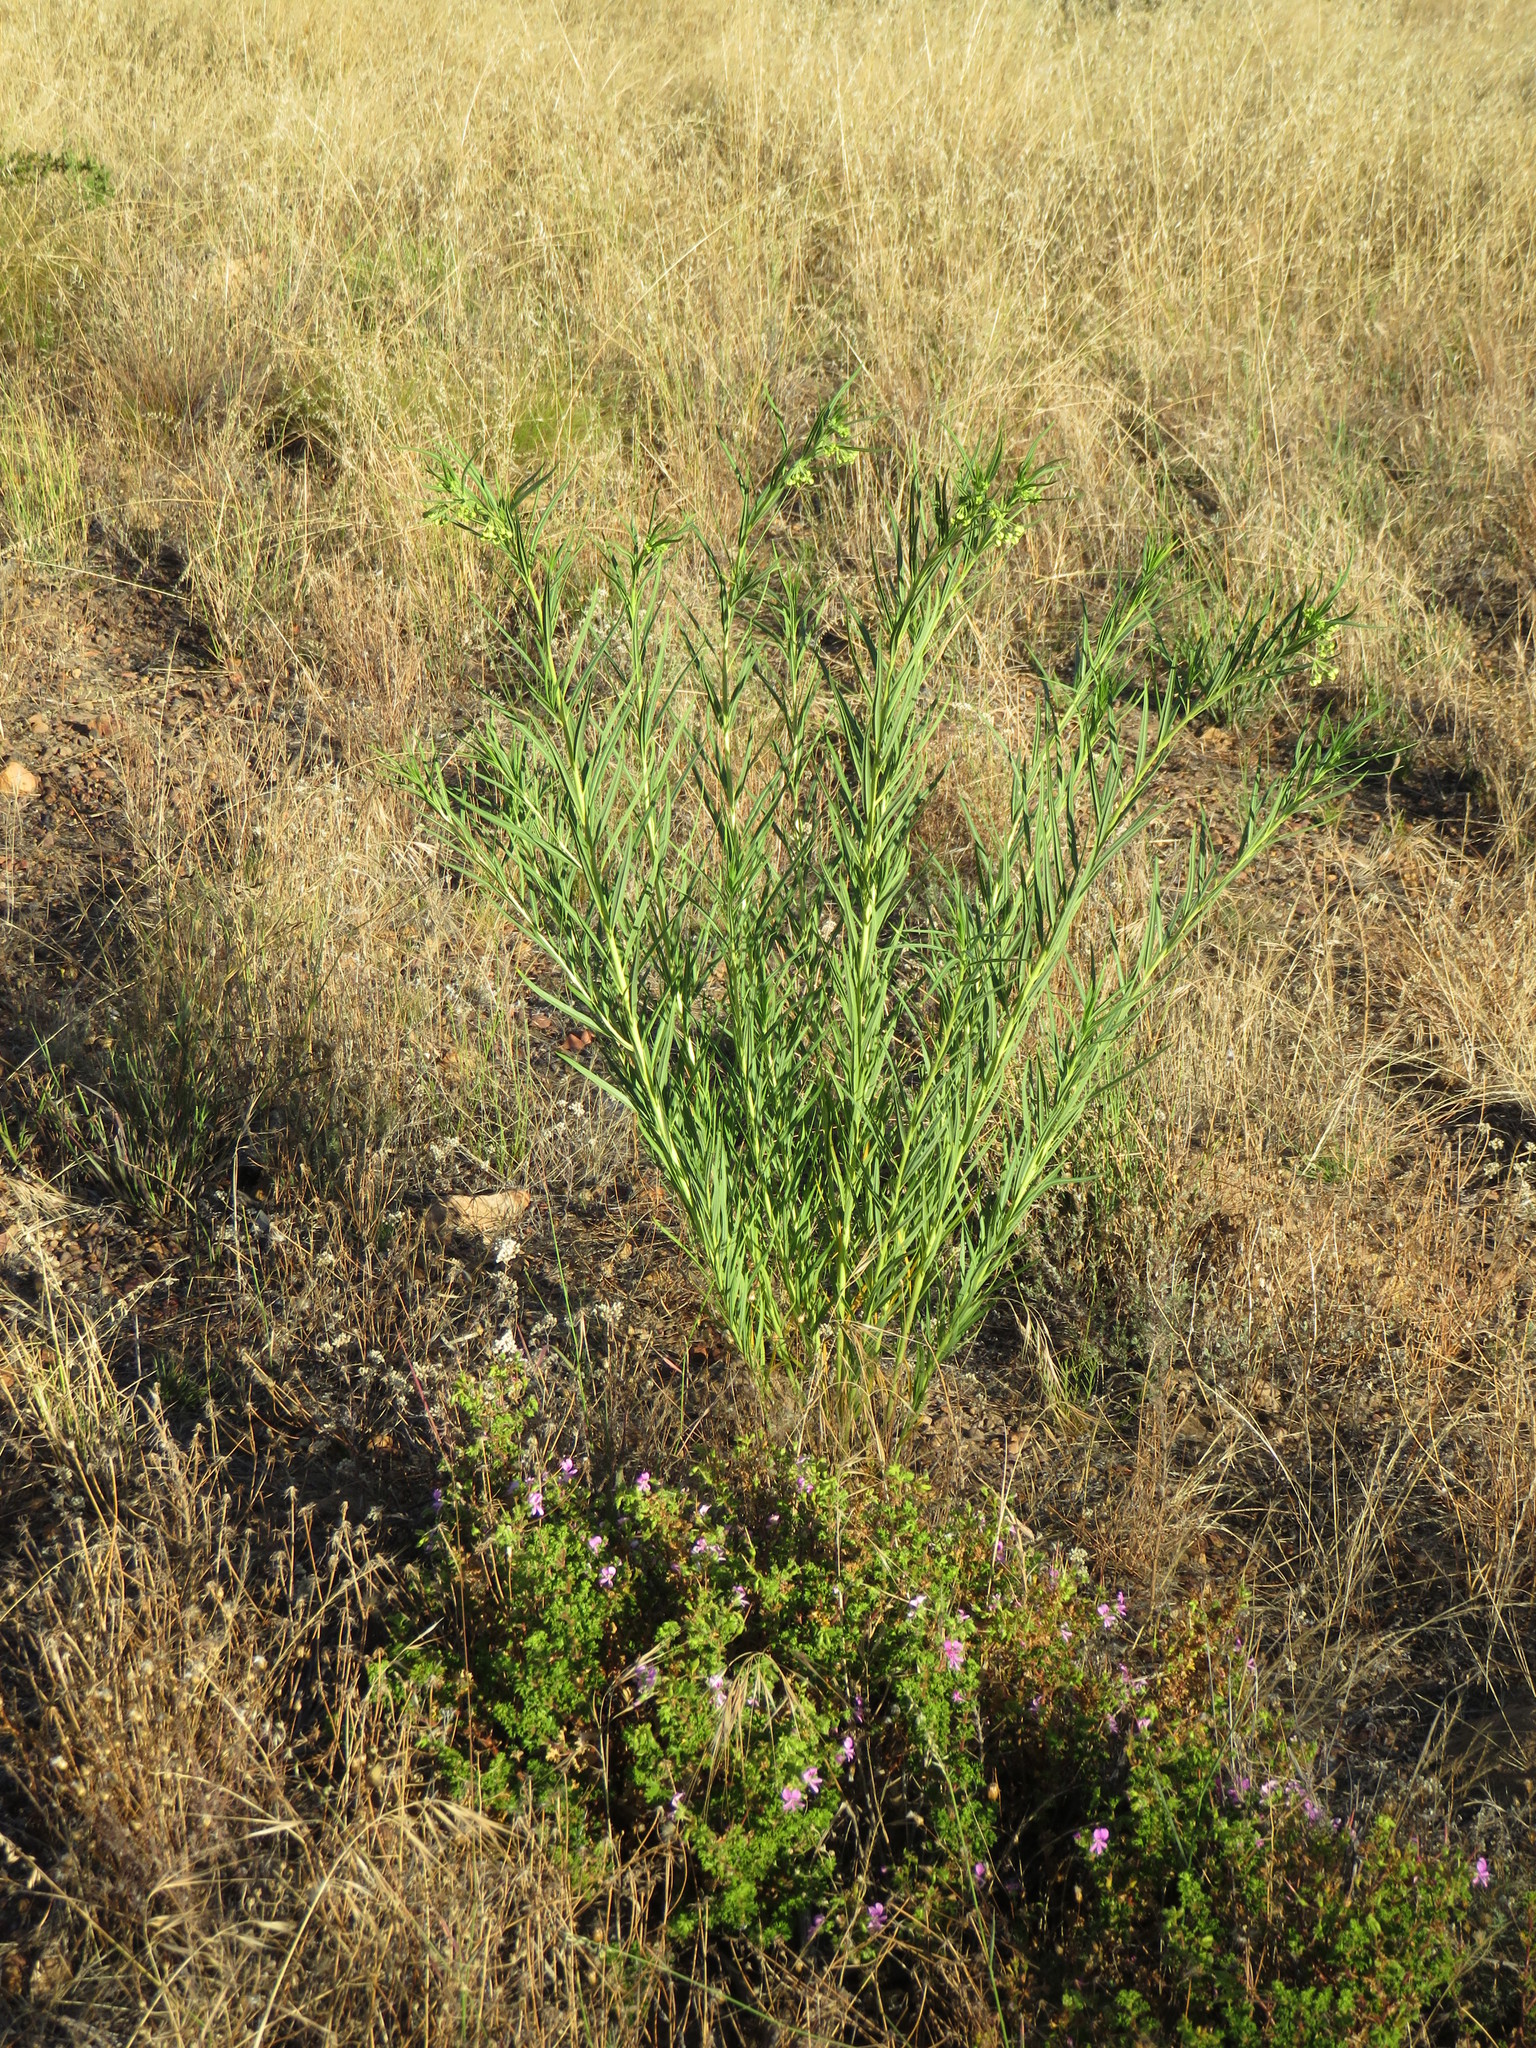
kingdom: Plantae
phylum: Tracheophyta
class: Magnoliopsida
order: Gentianales
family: Apocynaceae
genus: Gomphocarpus
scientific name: Gomphocarpus fruticosus
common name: Milkweed
